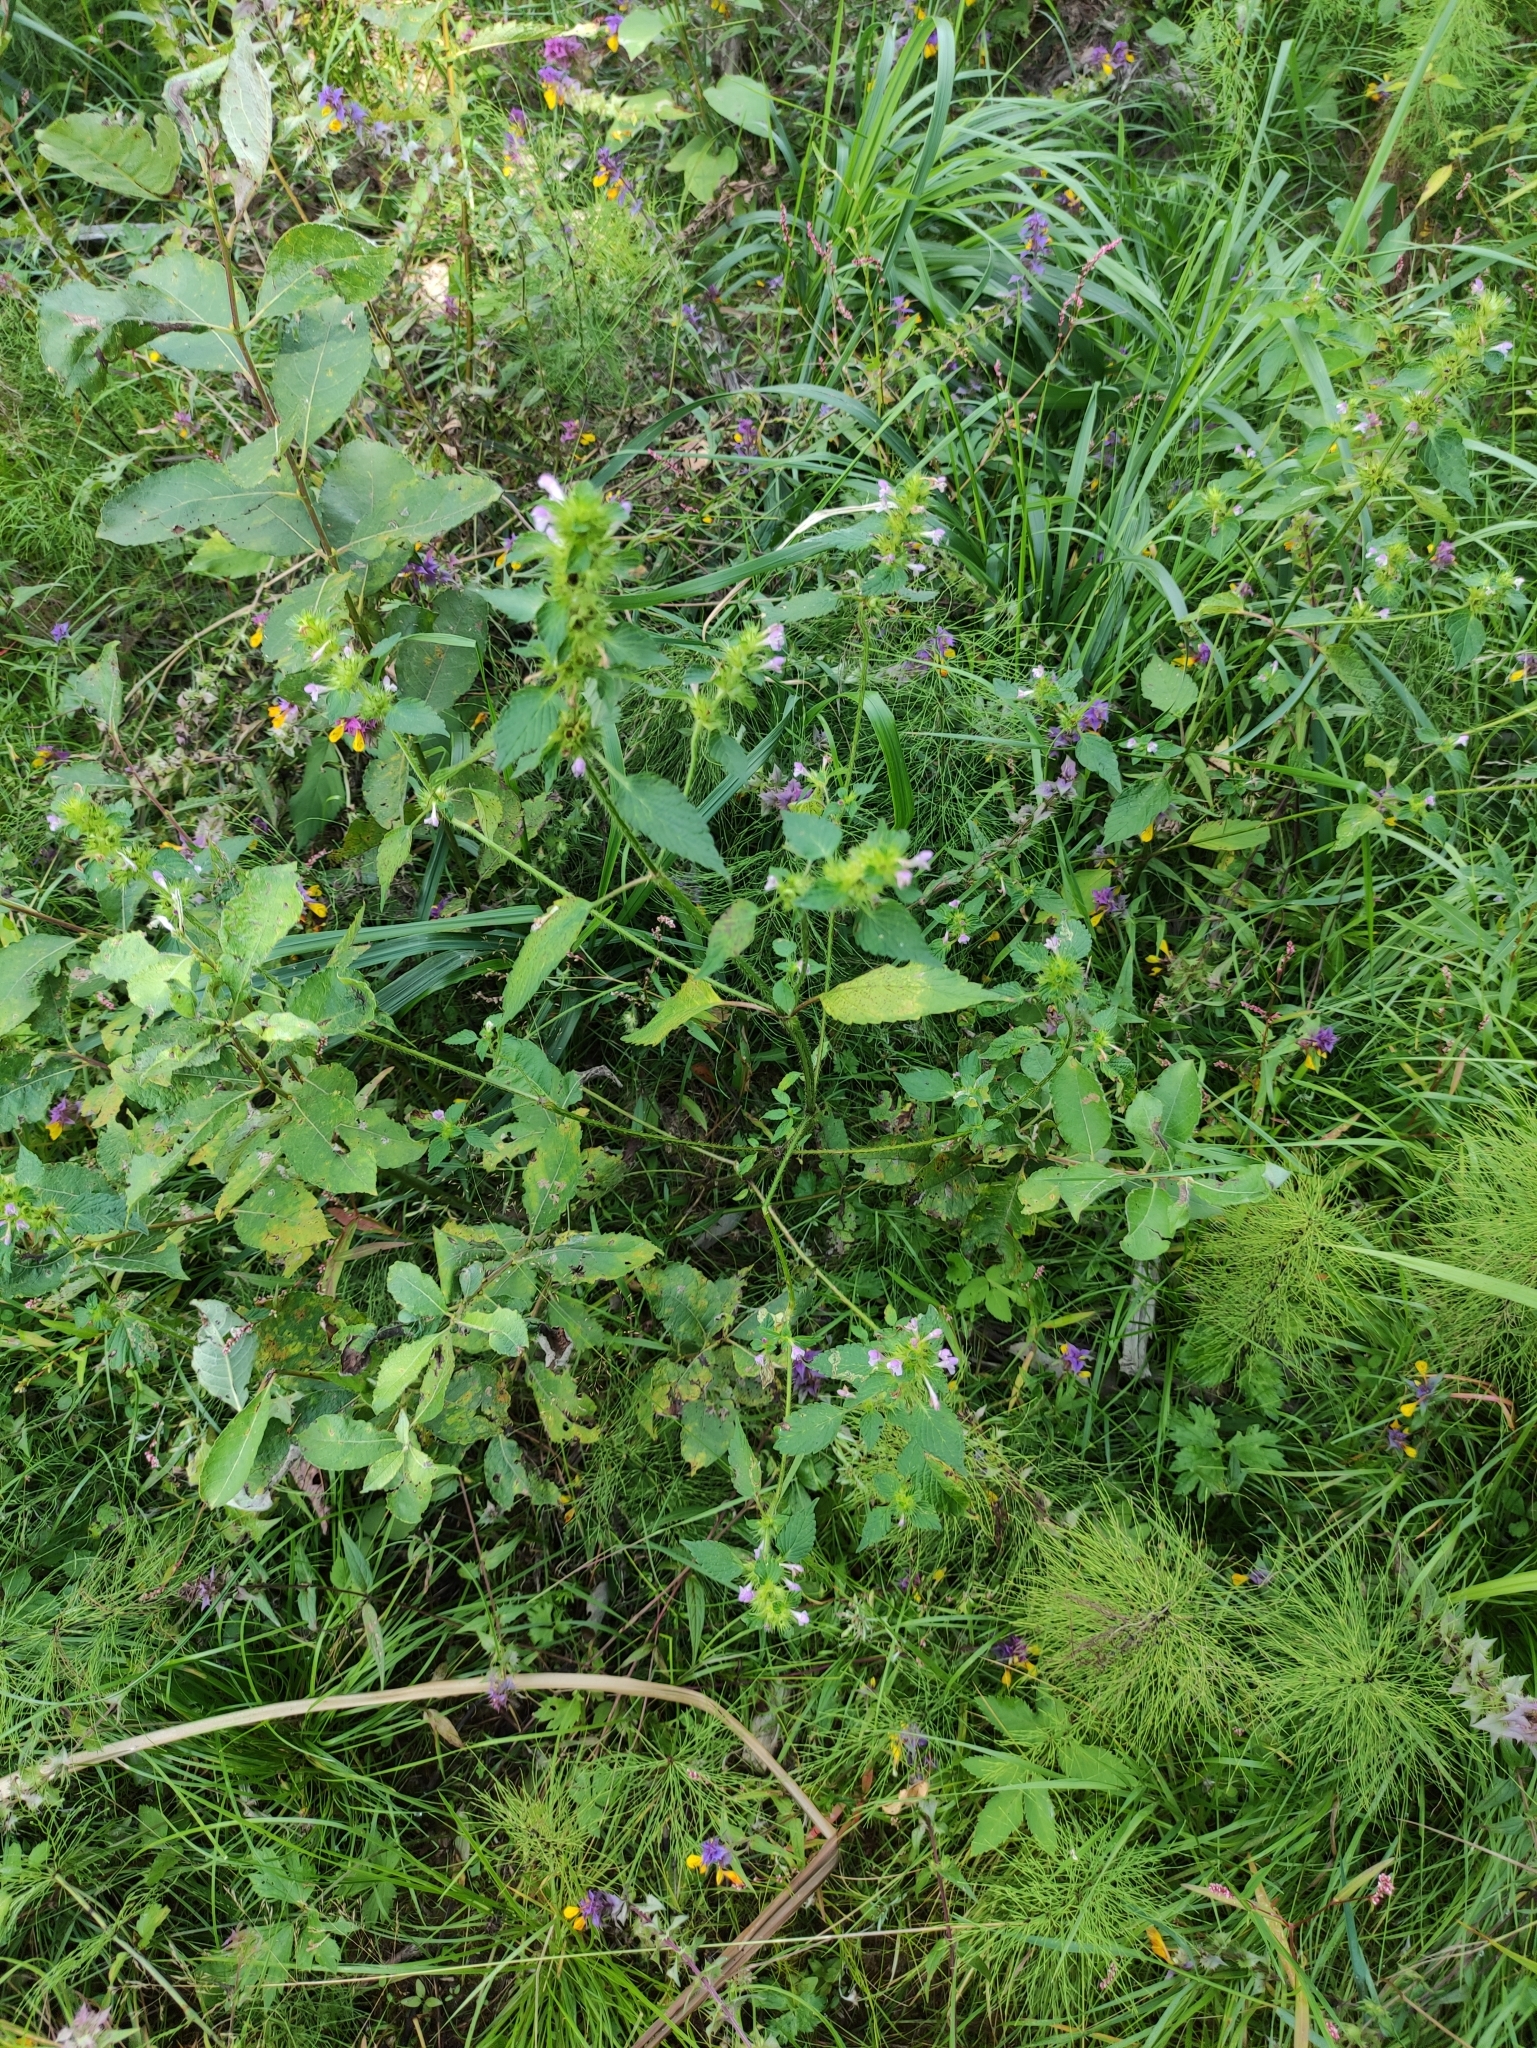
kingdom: Plantae
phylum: Tracheophyta
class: Magnoliopsida
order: Lamiales
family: Lamiaceae
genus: Galeopsis
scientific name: Galeopsis bifida
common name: Bifid hemp-nettle
